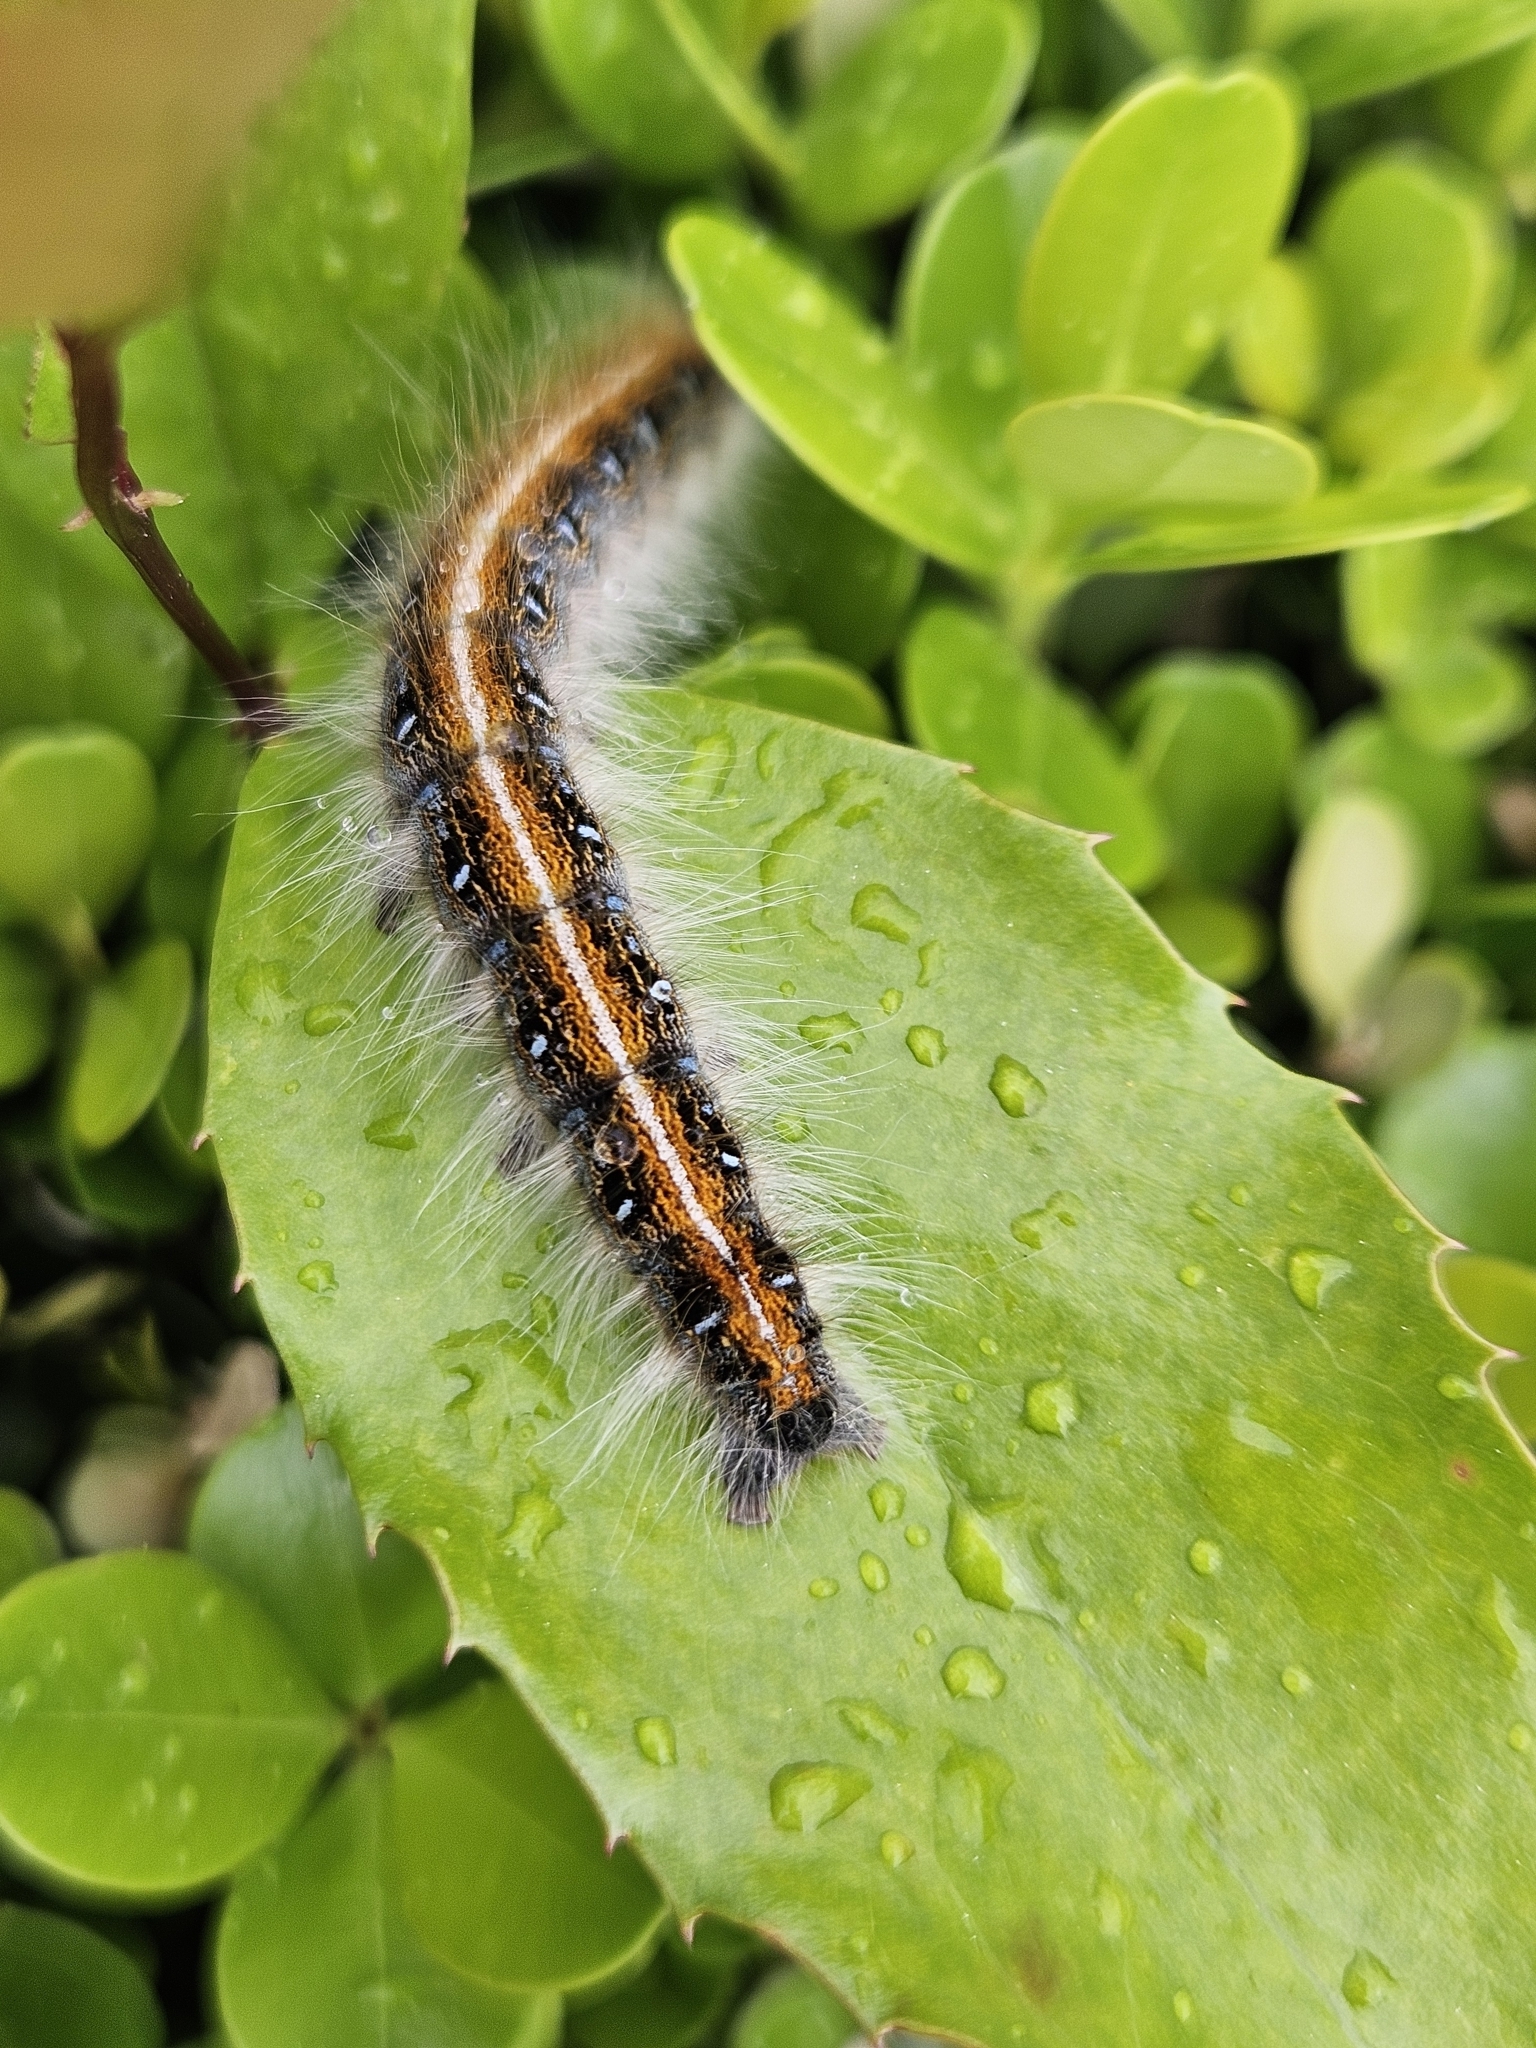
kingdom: Animalia
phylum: Arthropoda
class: Insecta
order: Lepidoptera
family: Lasiocampidae
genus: Malacosoma
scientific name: Malacosoma americana
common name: Eastern tent caterpillar moth
